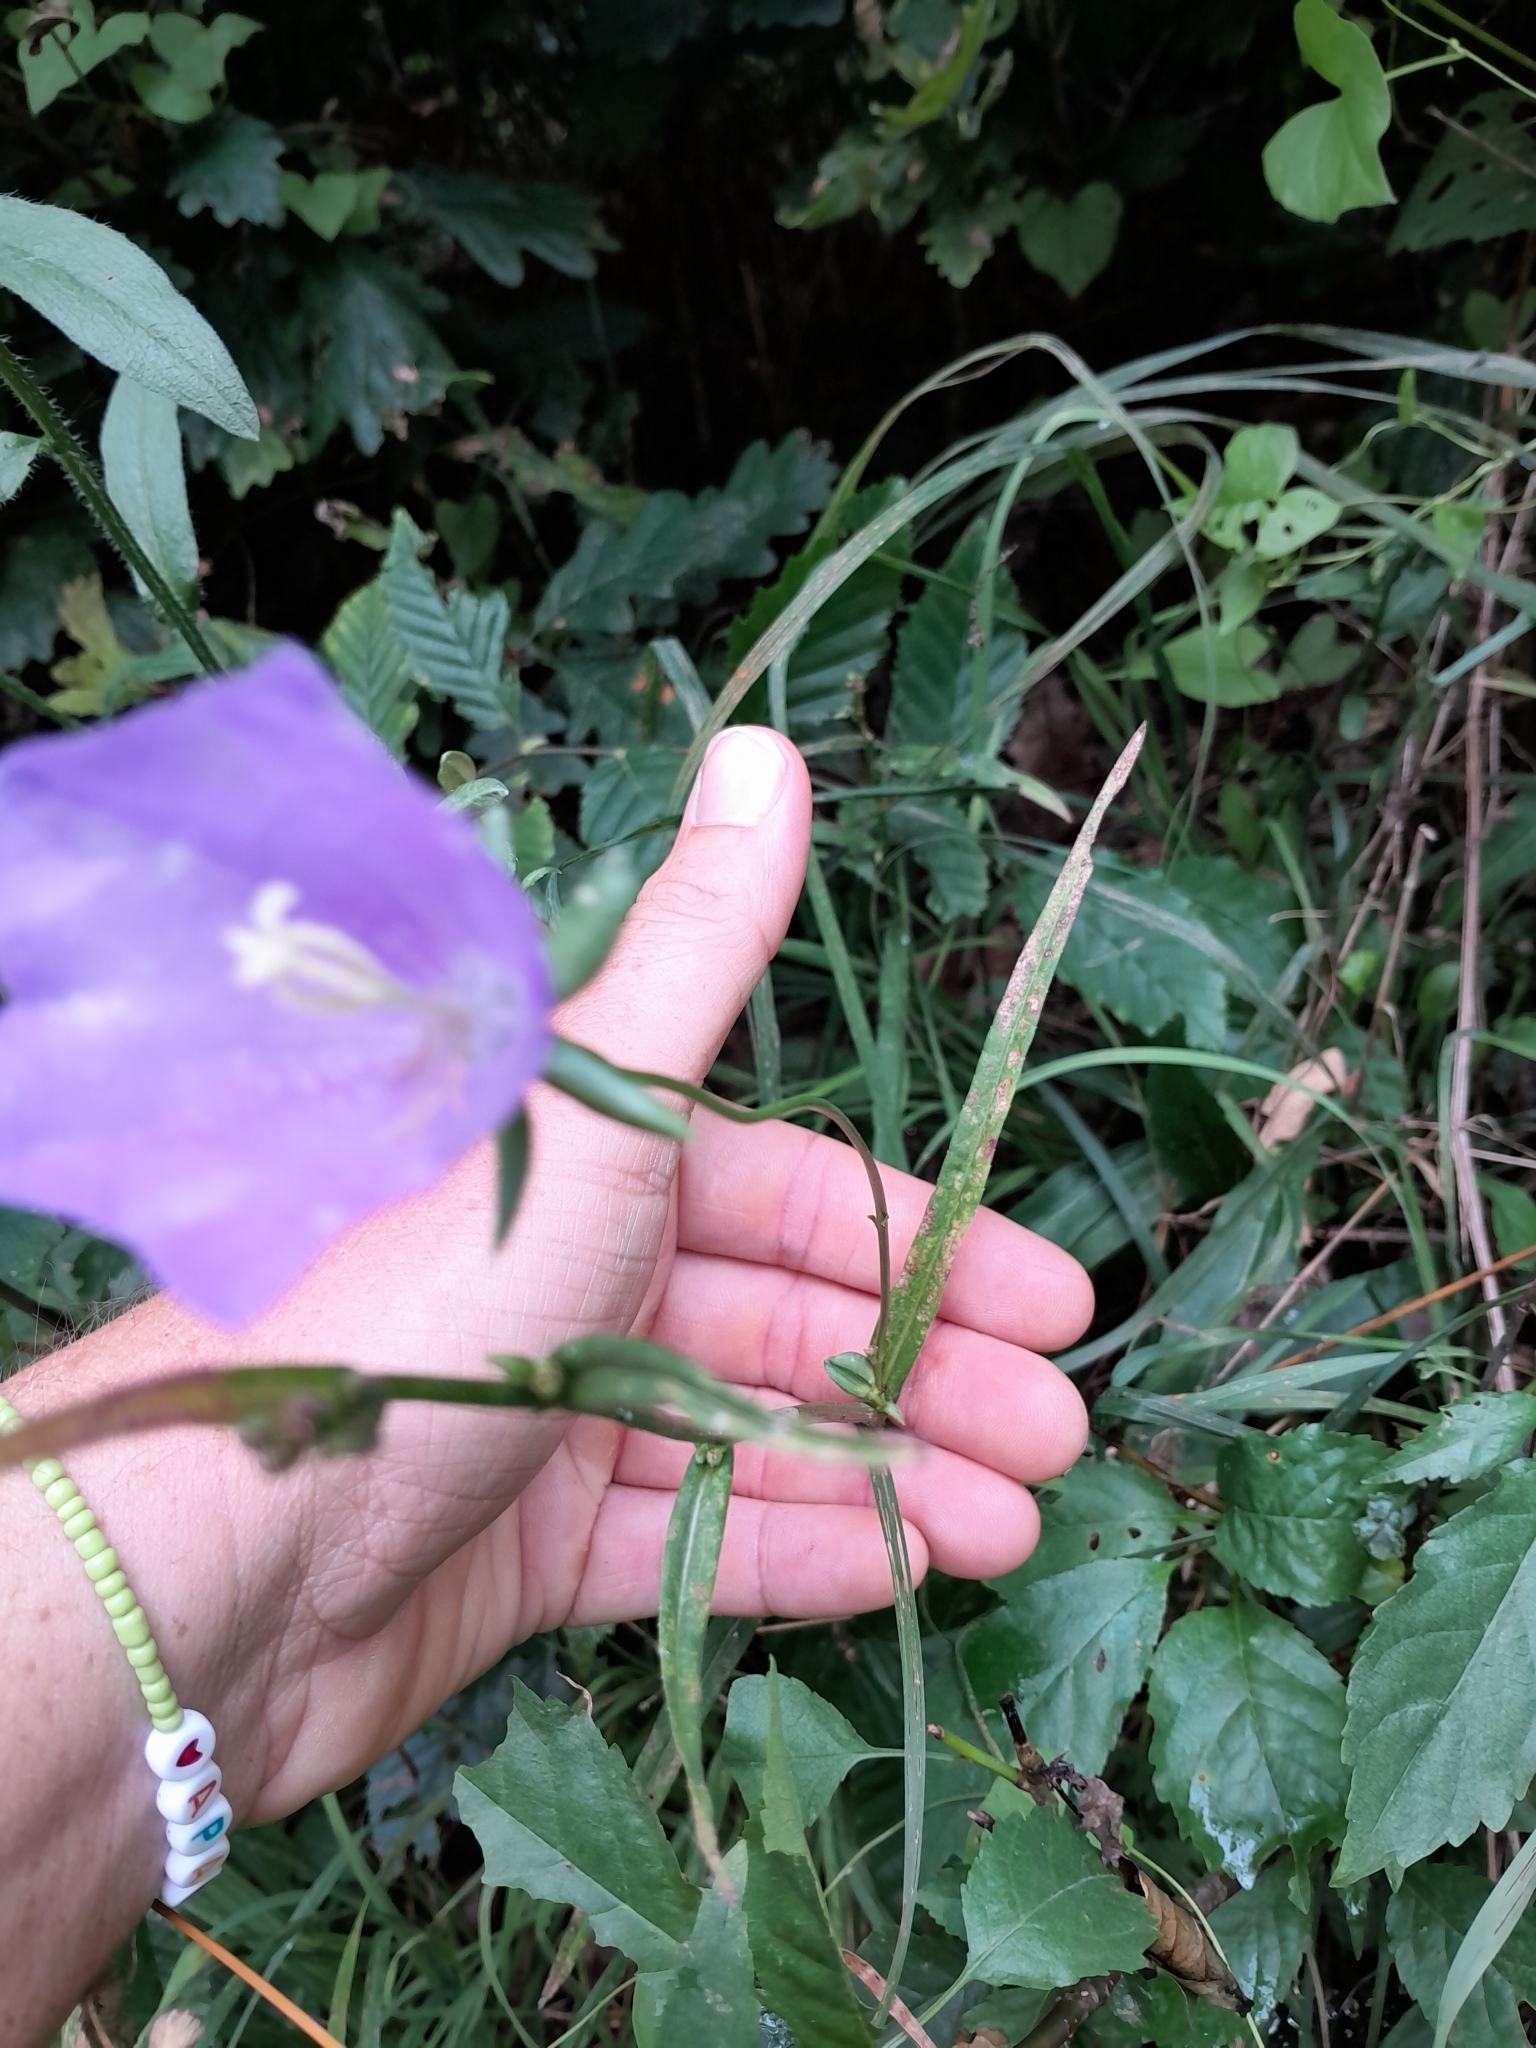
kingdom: Plantae
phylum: Tracheophyta
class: Magnoliopsida
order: Asterales
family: Campanulaceae
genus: Campanula
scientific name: Campanula persicifolia
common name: Peach-leaved bellflower
